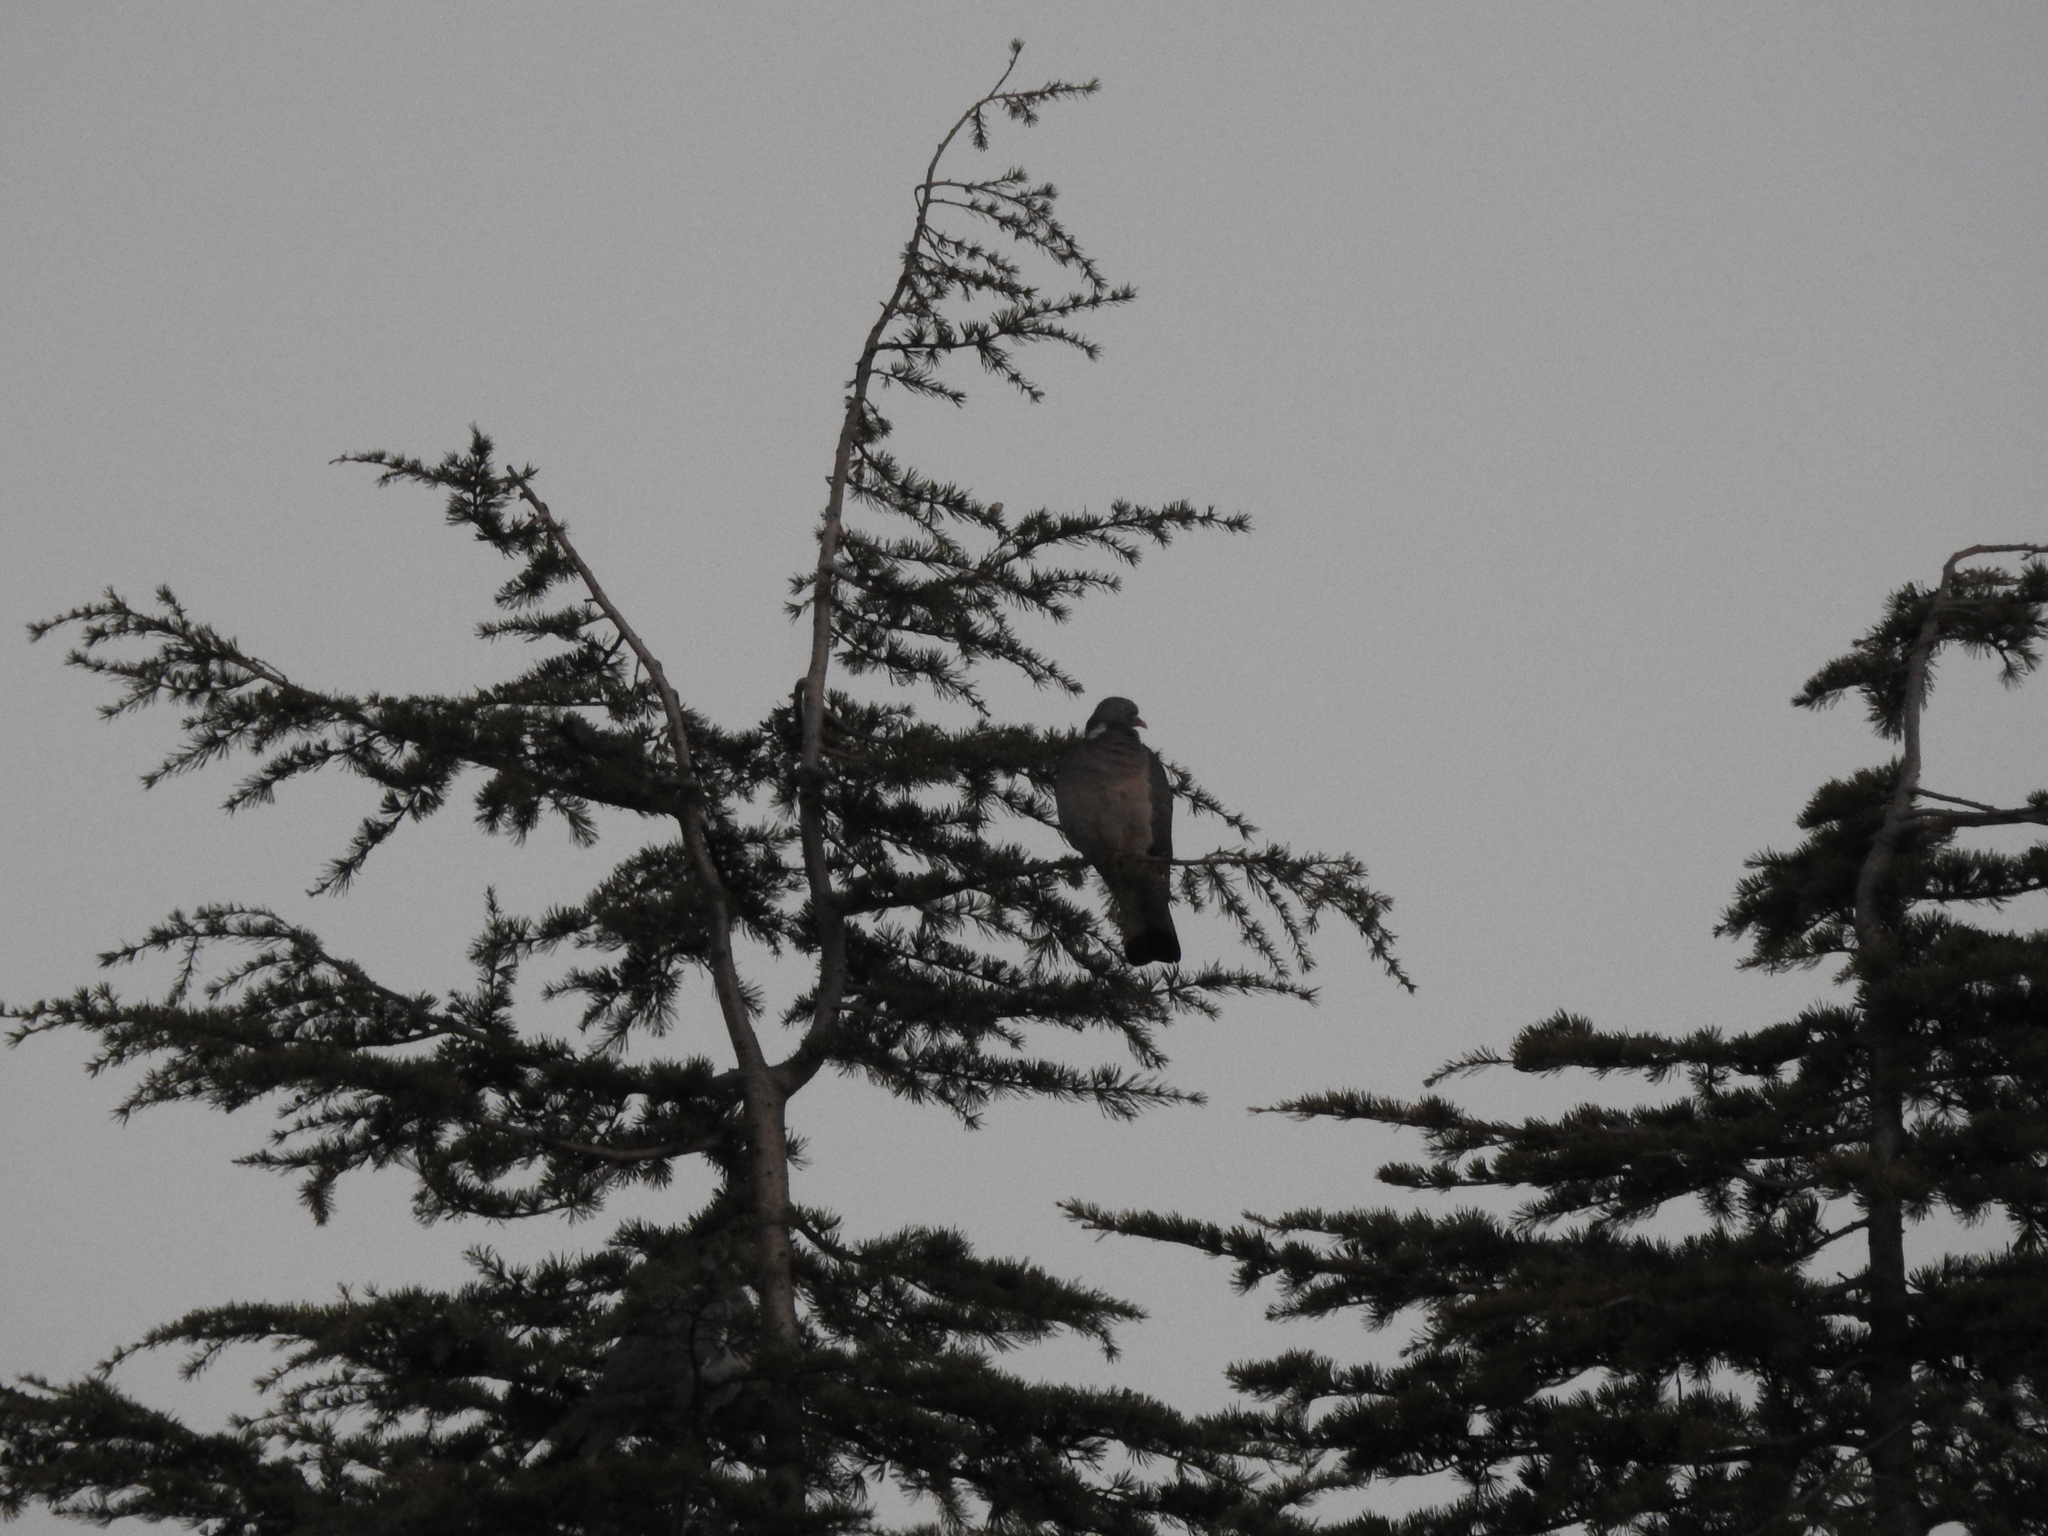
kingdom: Animalia
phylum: Chordata
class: Aves
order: Columbiformes
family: Columbidae
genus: Columba
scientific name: Columba palumbus
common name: Common wood pigeon
